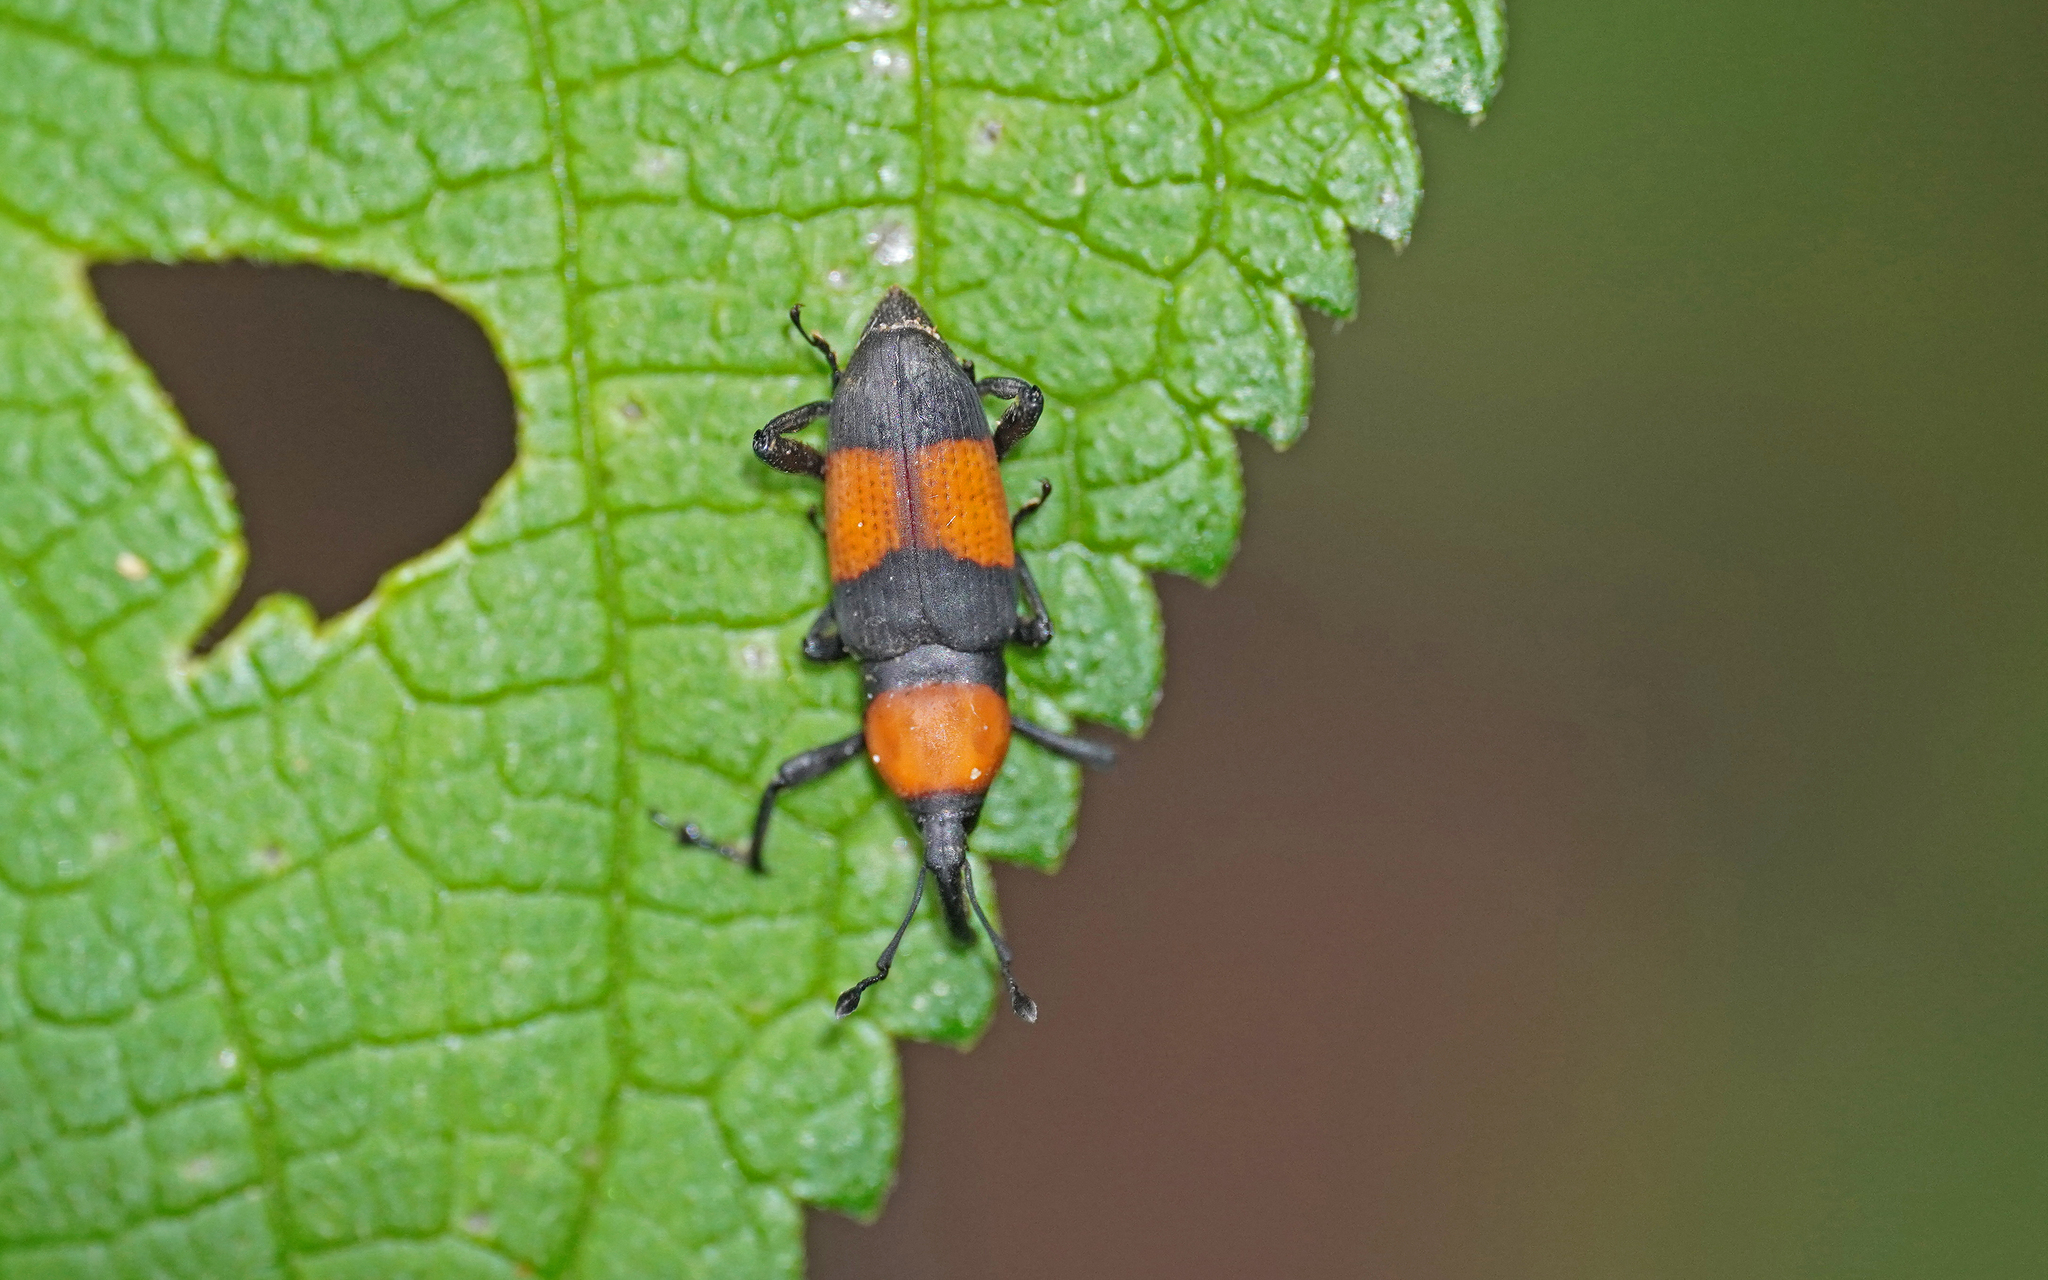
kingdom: Animalia
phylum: Arthropoda
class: Insecta
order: Coleoptera
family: Dryophthoridae
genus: Rhodobaenus
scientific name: Rhodobaenus augustinus
